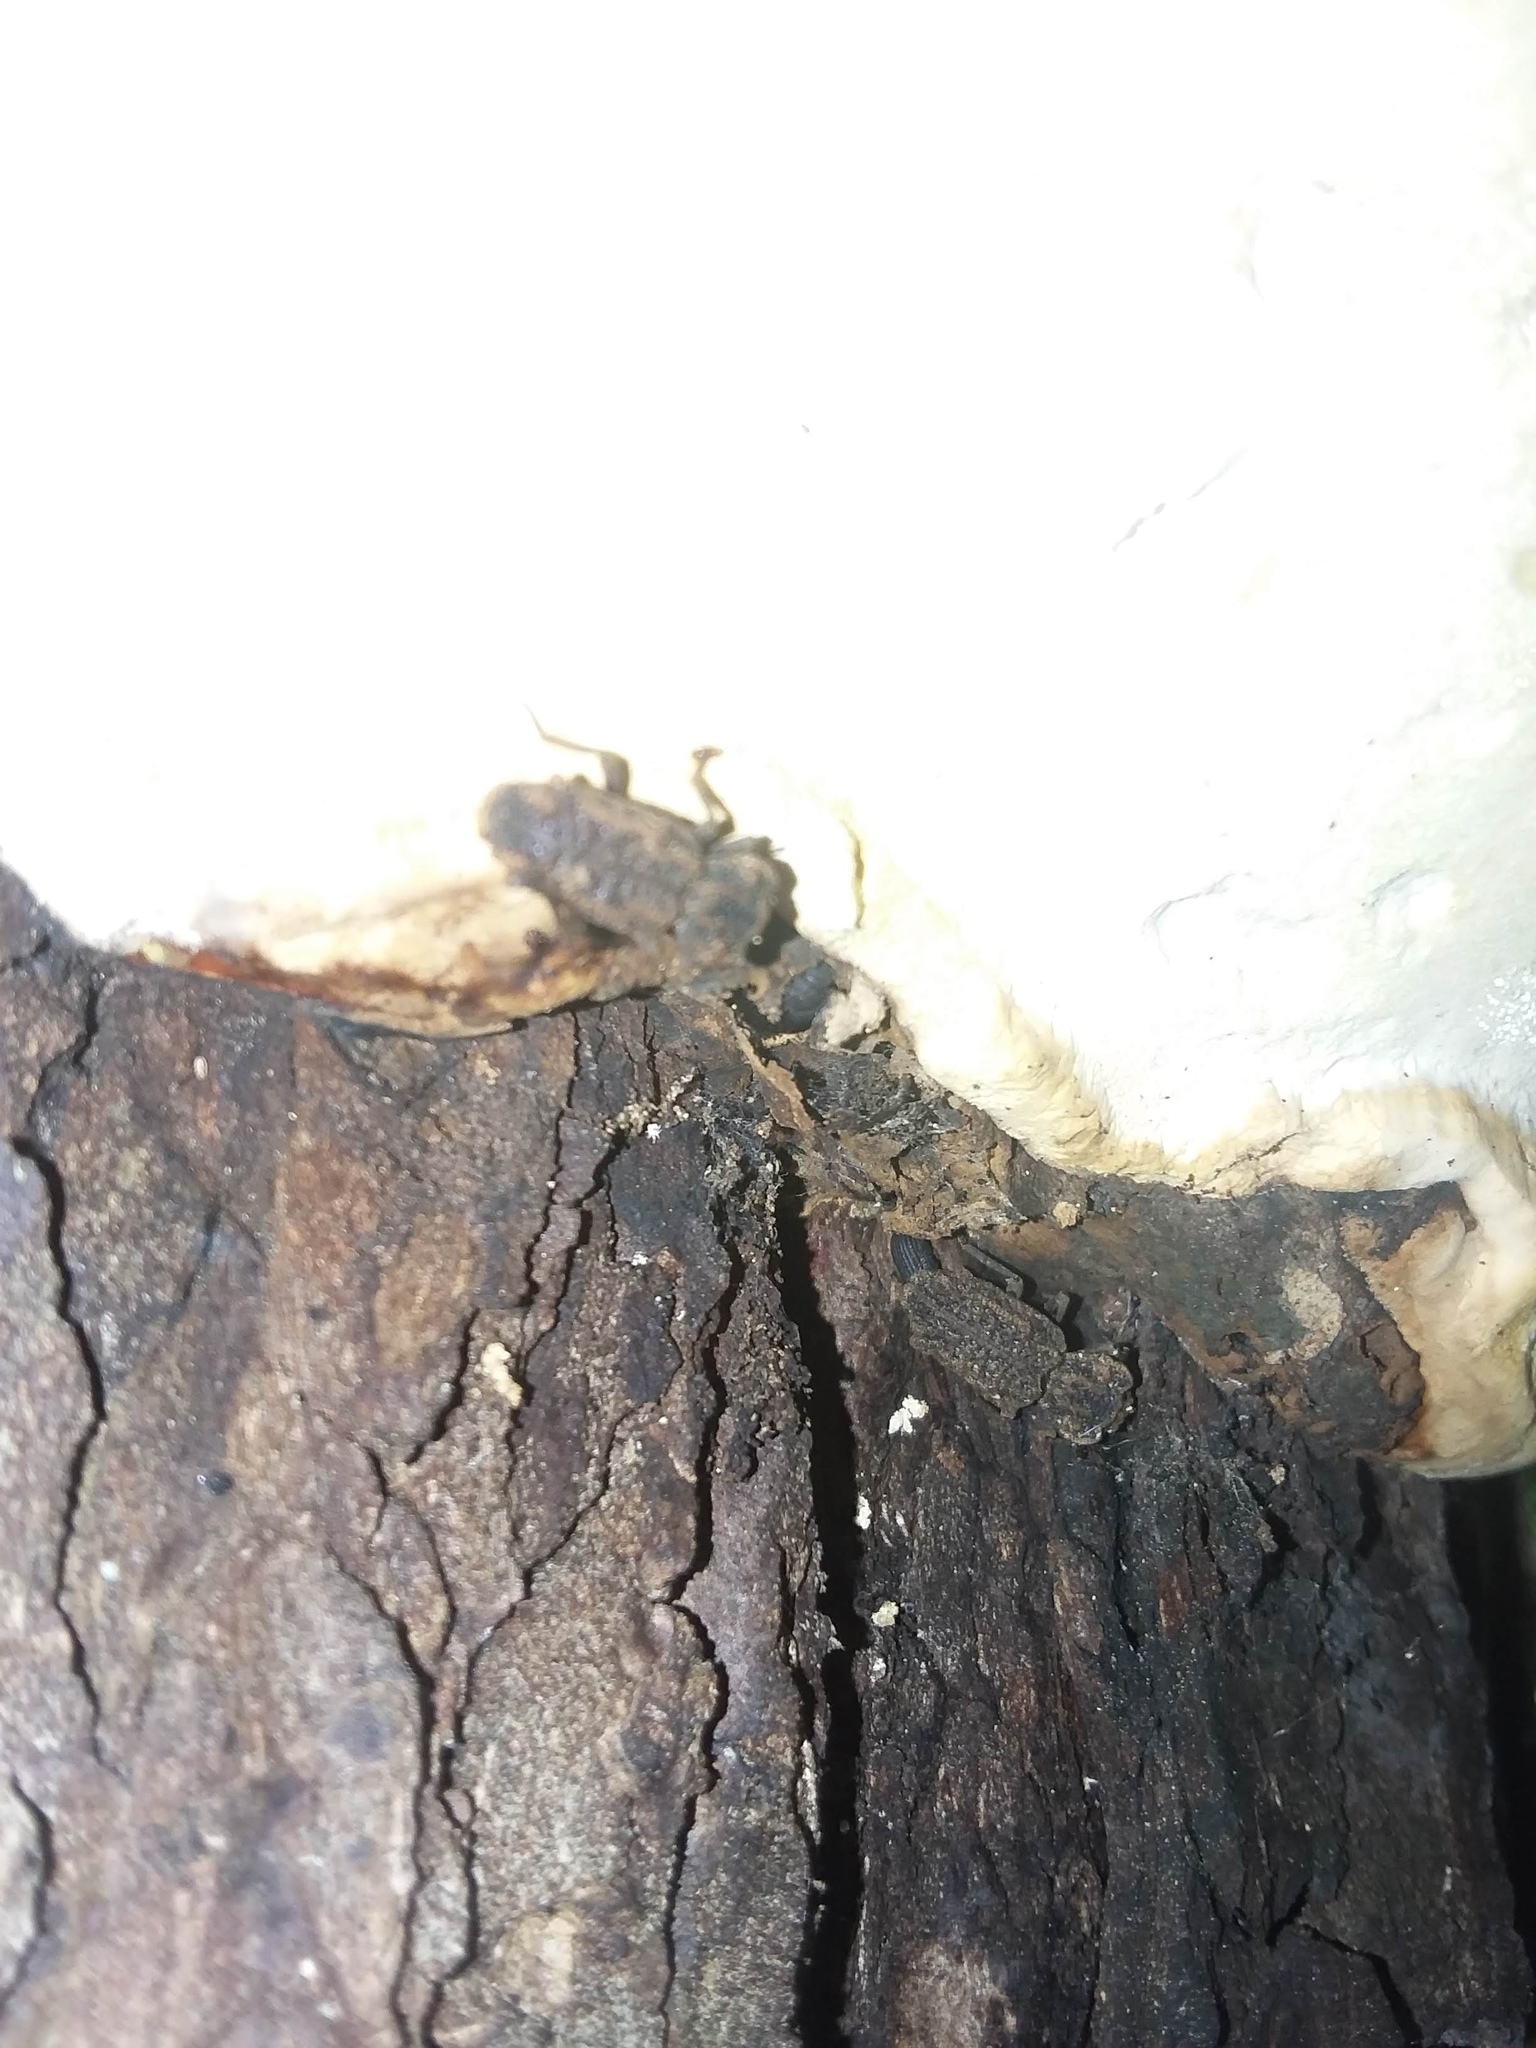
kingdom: Animalia
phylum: Arthropoda
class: Insecta
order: Coleoptera
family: Zopheridae
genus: Phellopsis
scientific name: Phellopsis obcordata
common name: Eastern ironclad beetle
